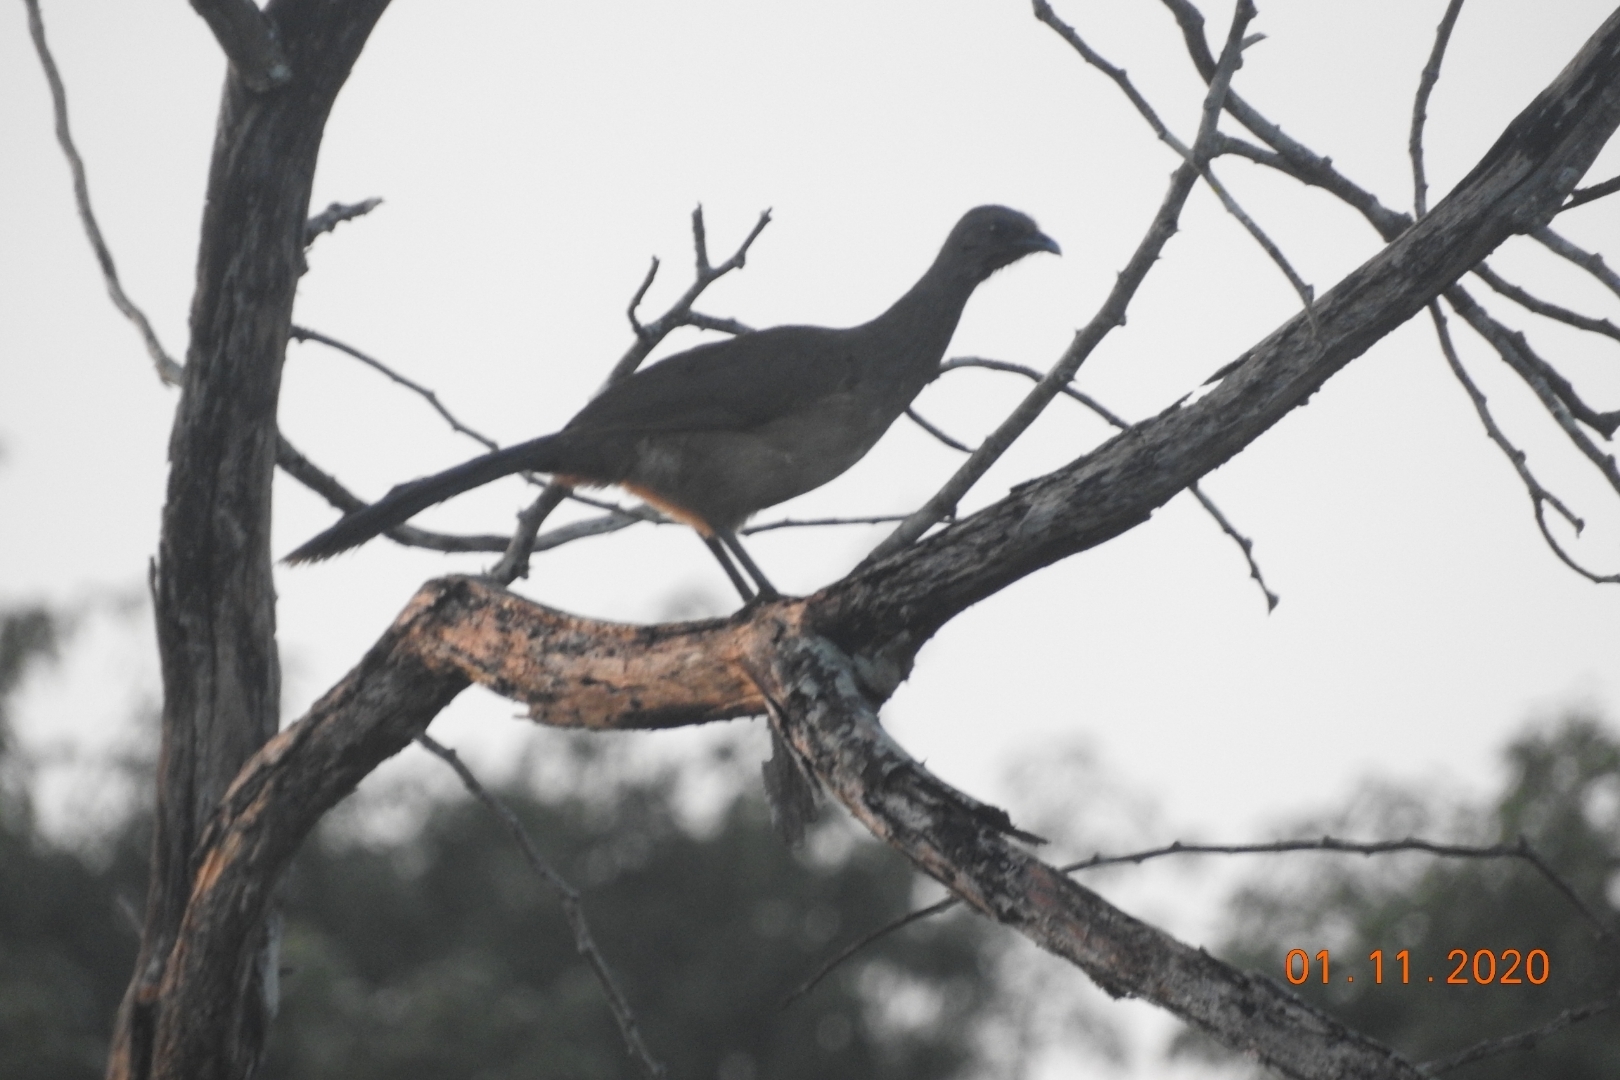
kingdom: Animalia
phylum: Chordata
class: Aves
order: Galliformes
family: Cracidae
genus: Ortalis
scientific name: Ortalis vetula
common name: Plain chachalaca
